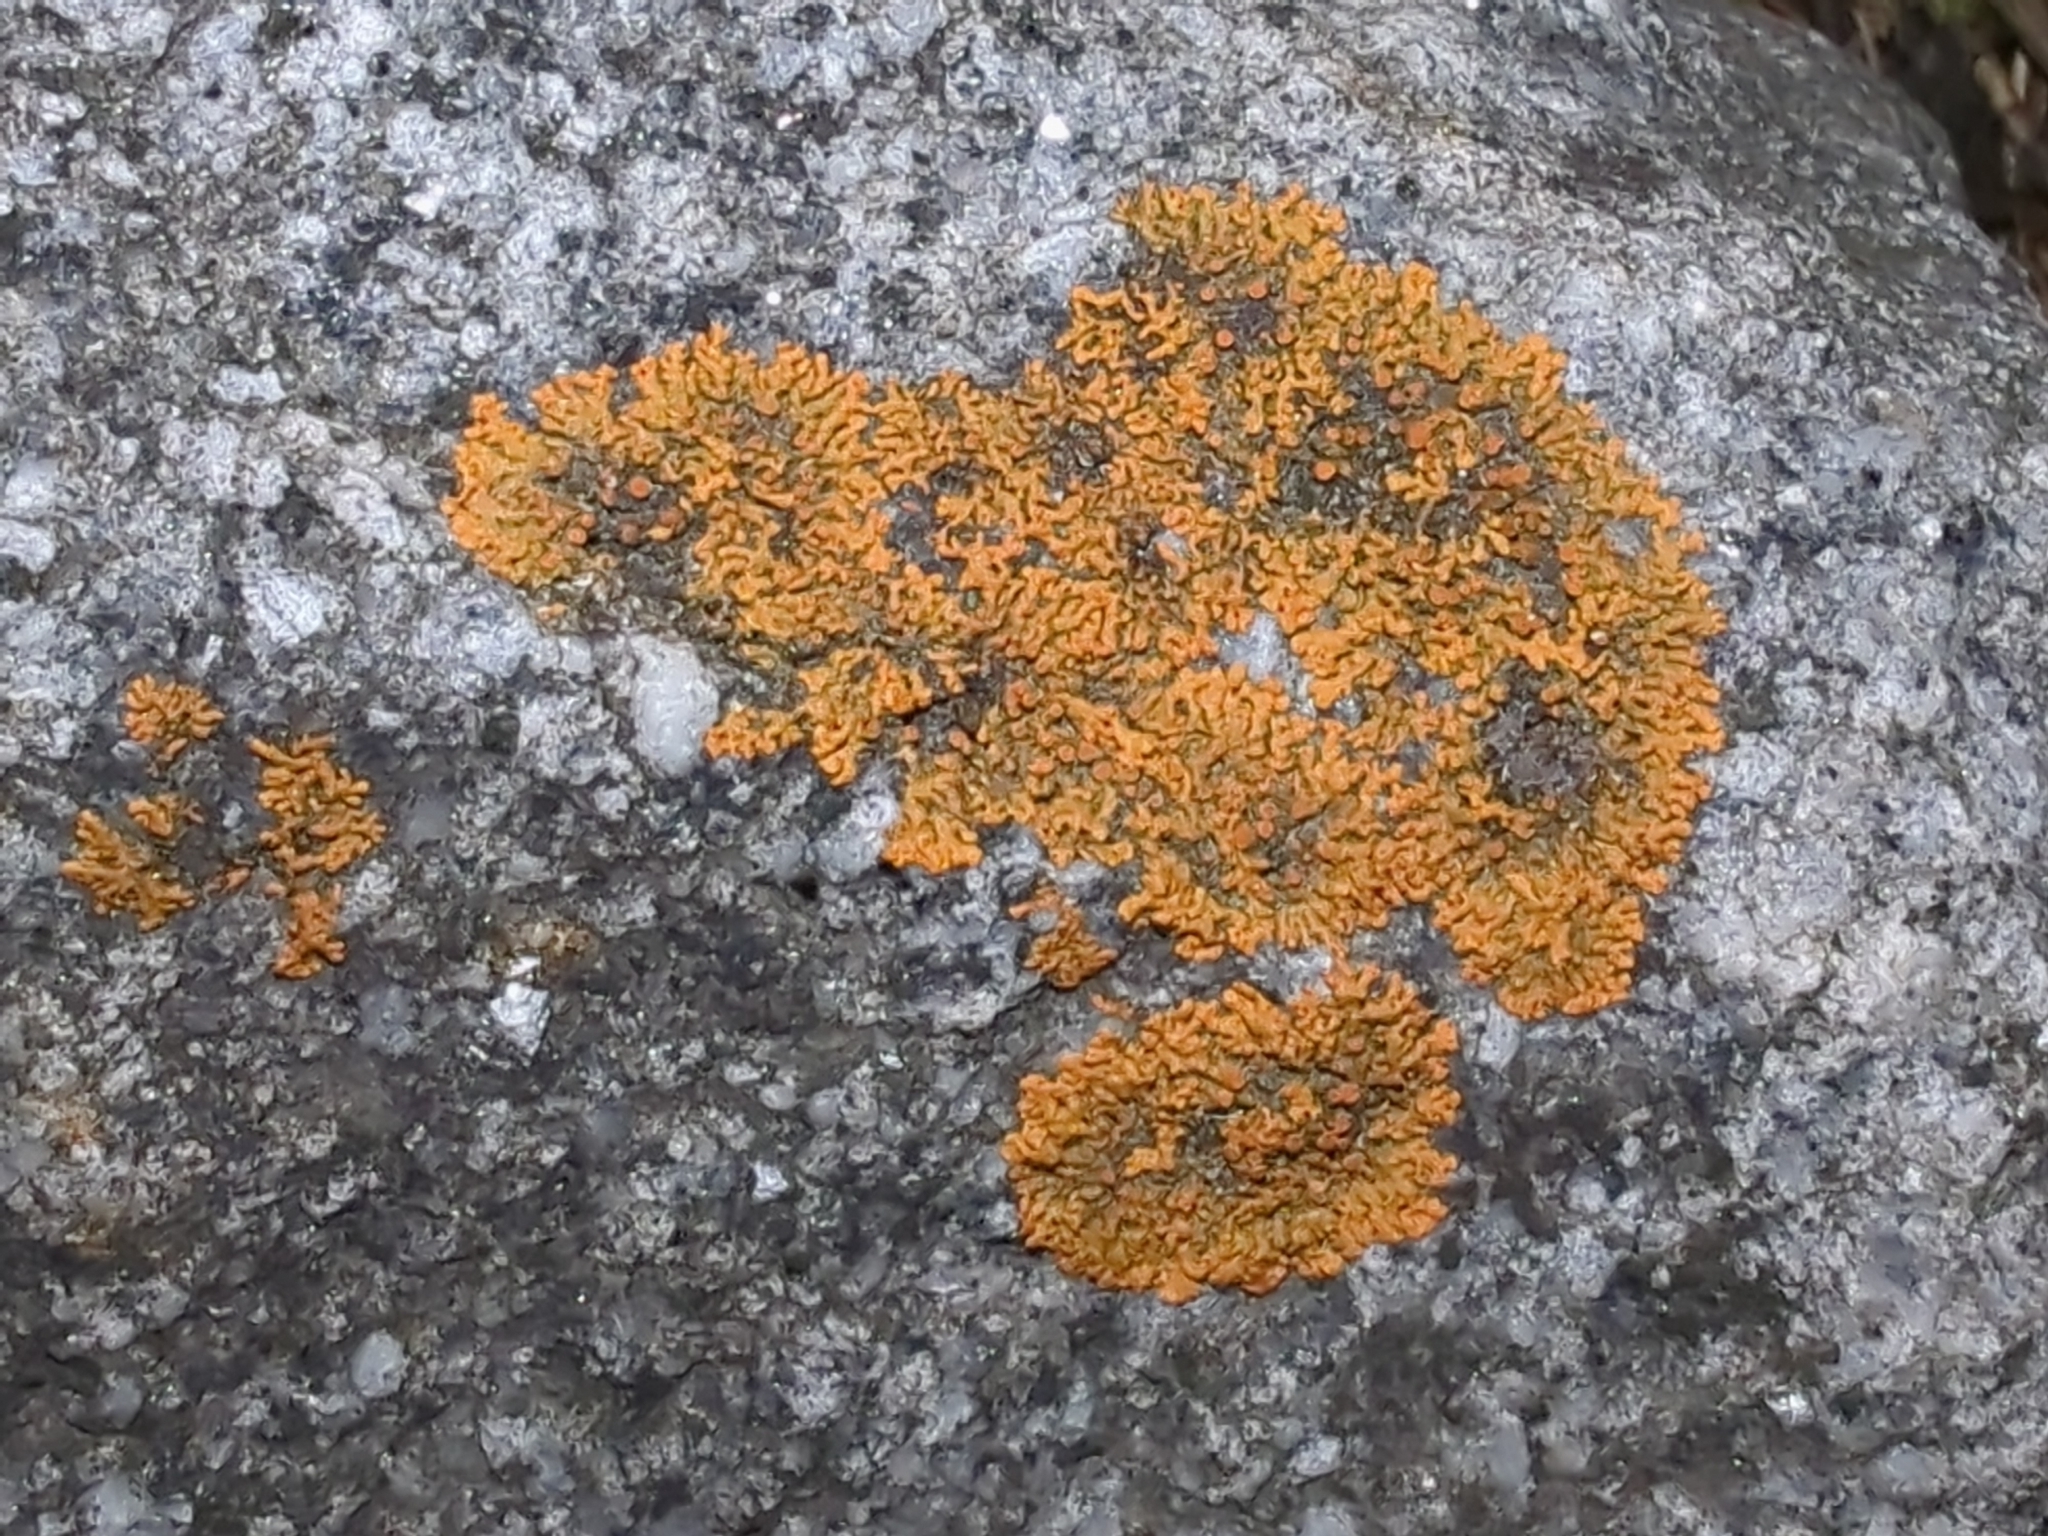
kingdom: Fungi
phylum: Ascomycota
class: Lecanoromycetes
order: Teloschistales
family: Teloschistaceae
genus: Xanthoria
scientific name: Xanthoria elegans
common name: Elegant sunburst lichen
